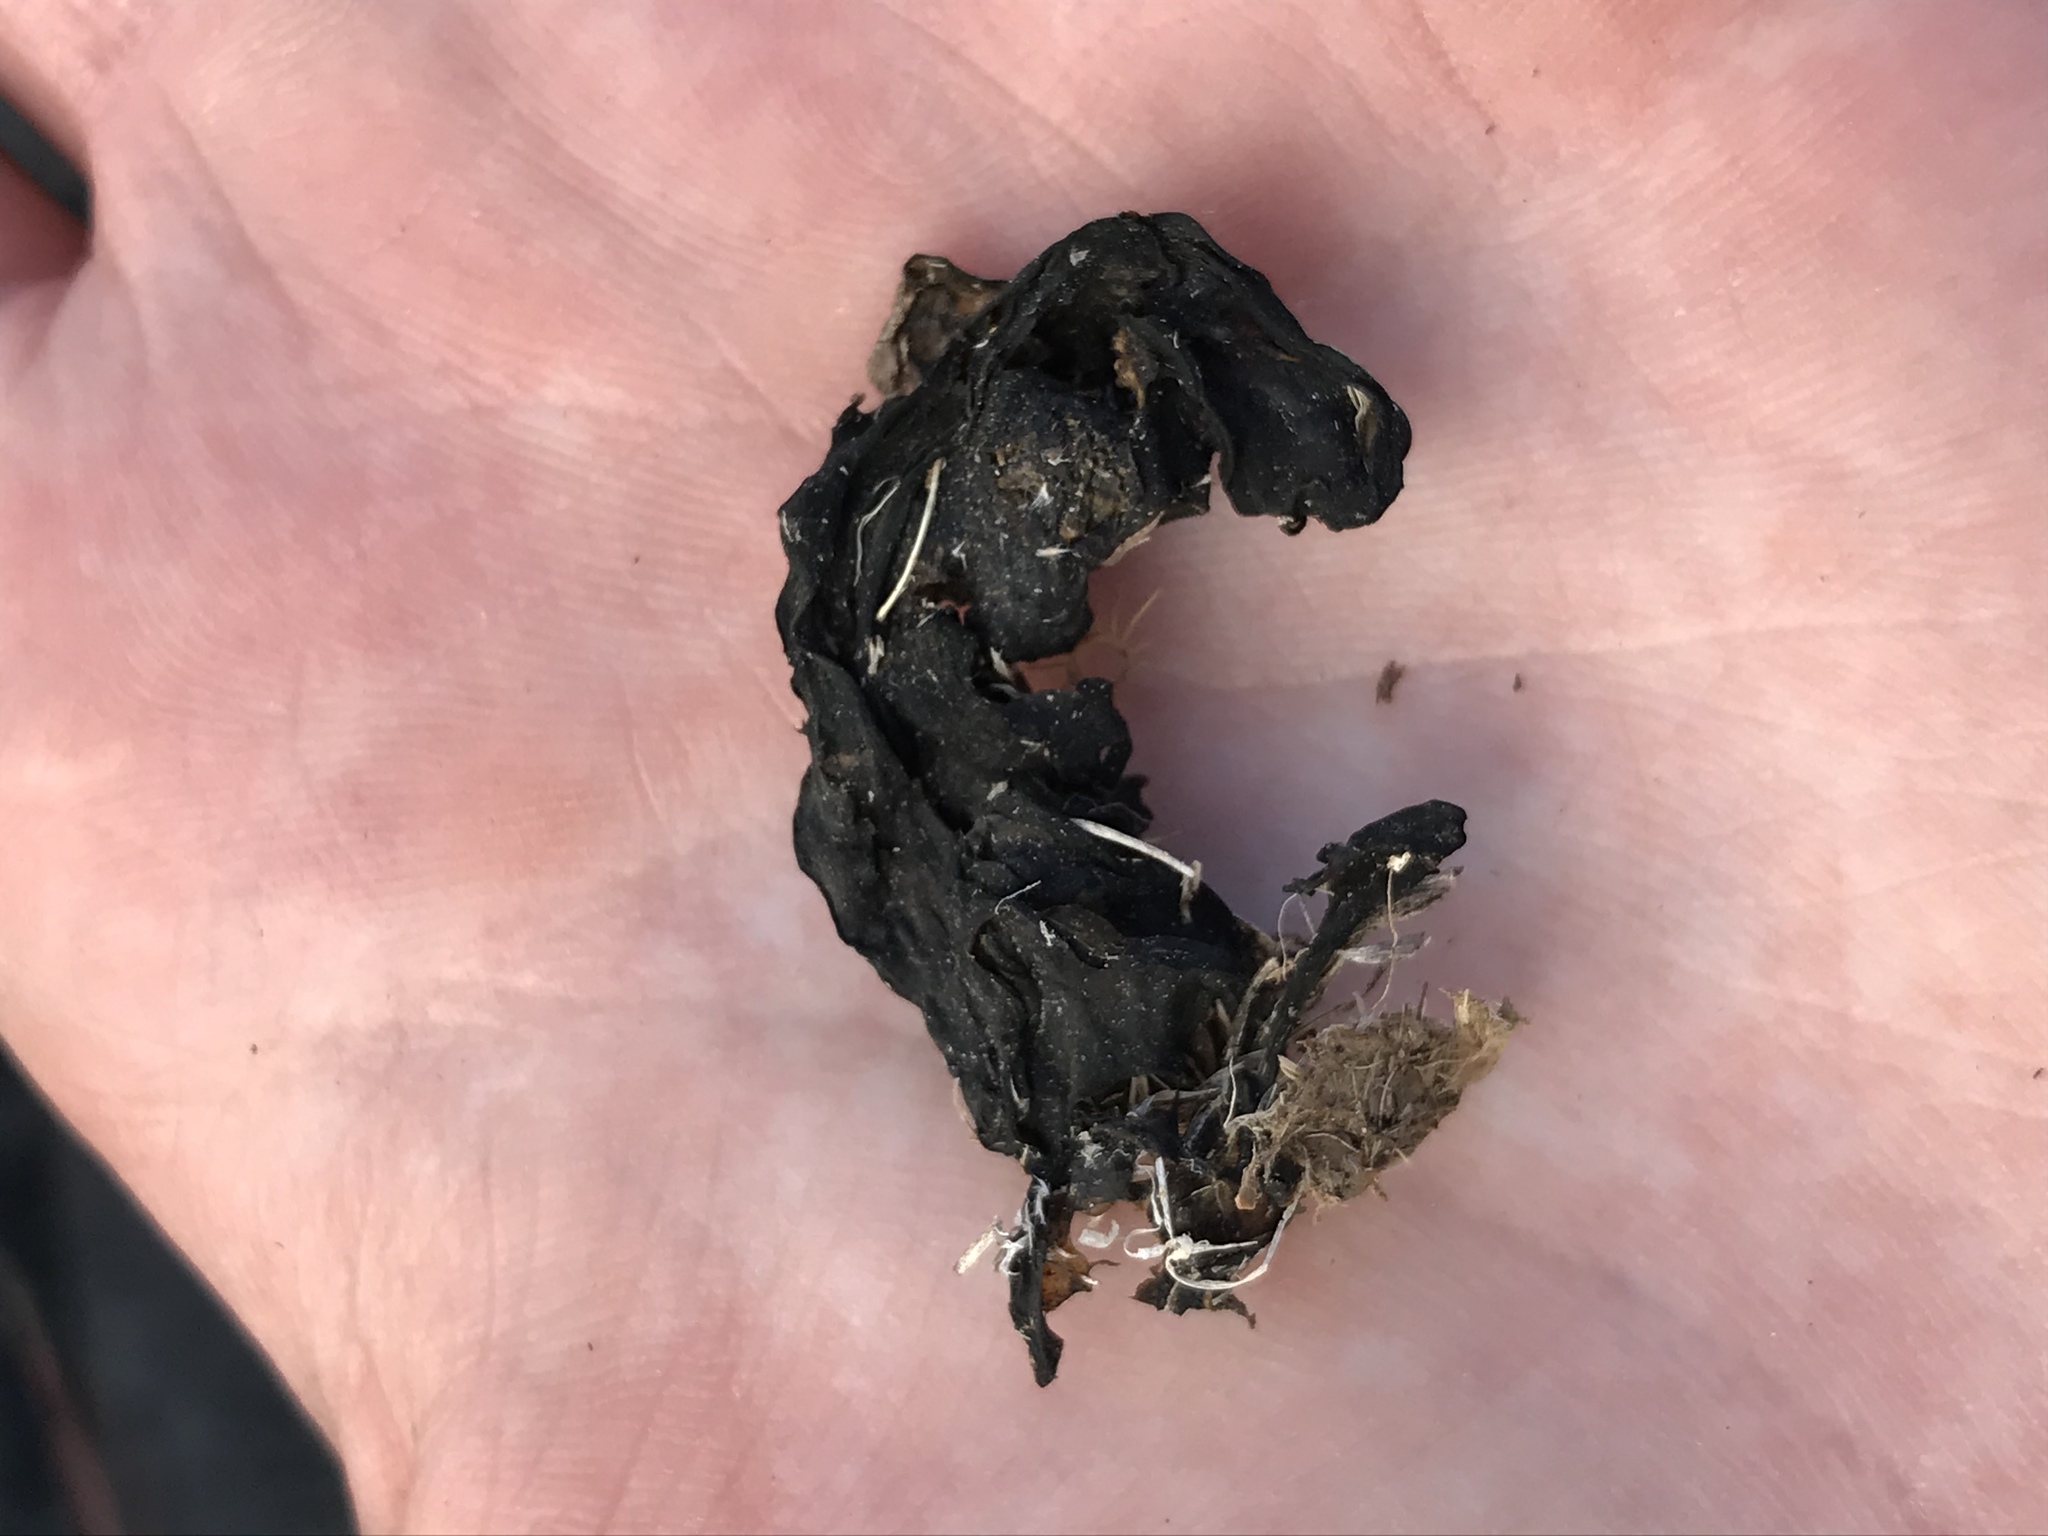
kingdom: Bacteria
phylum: Cyanobacteria
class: Cyanobacteriia
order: Cyanobacteriales
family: Nostocaceae
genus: Nostoc
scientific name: Nostoc commune
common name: Star jelly
